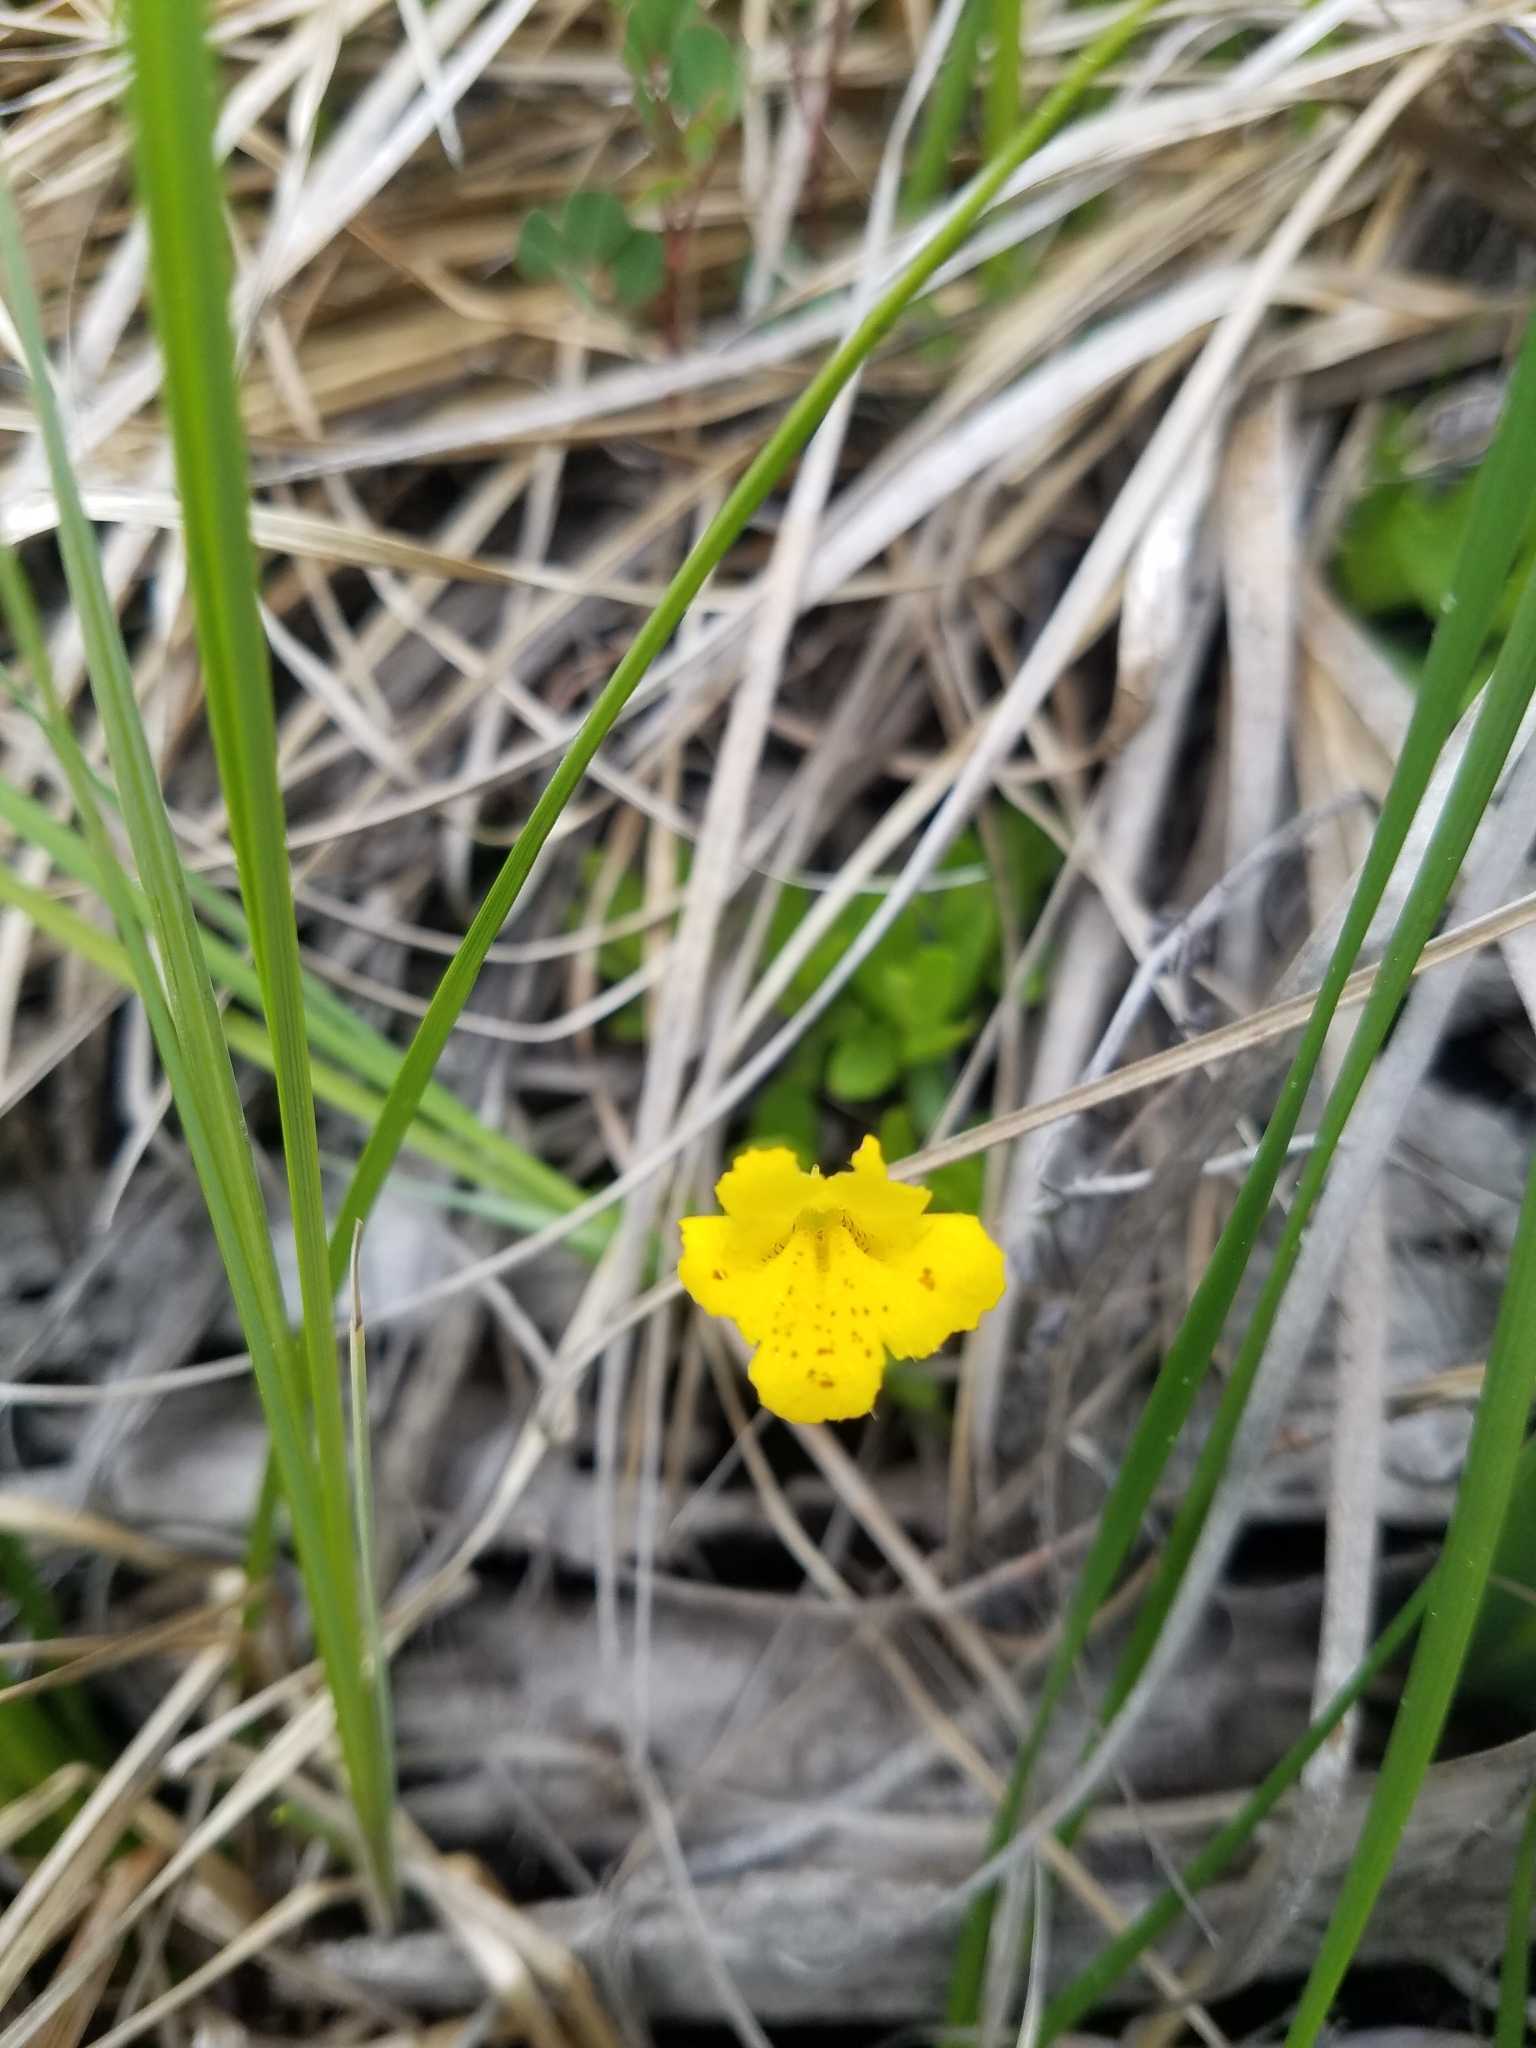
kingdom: Plantae
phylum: Tracheophyta
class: Magnoliopsida
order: Lamiales
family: Phrymaceae
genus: Erythranthe
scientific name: Erythranthe primuloides
